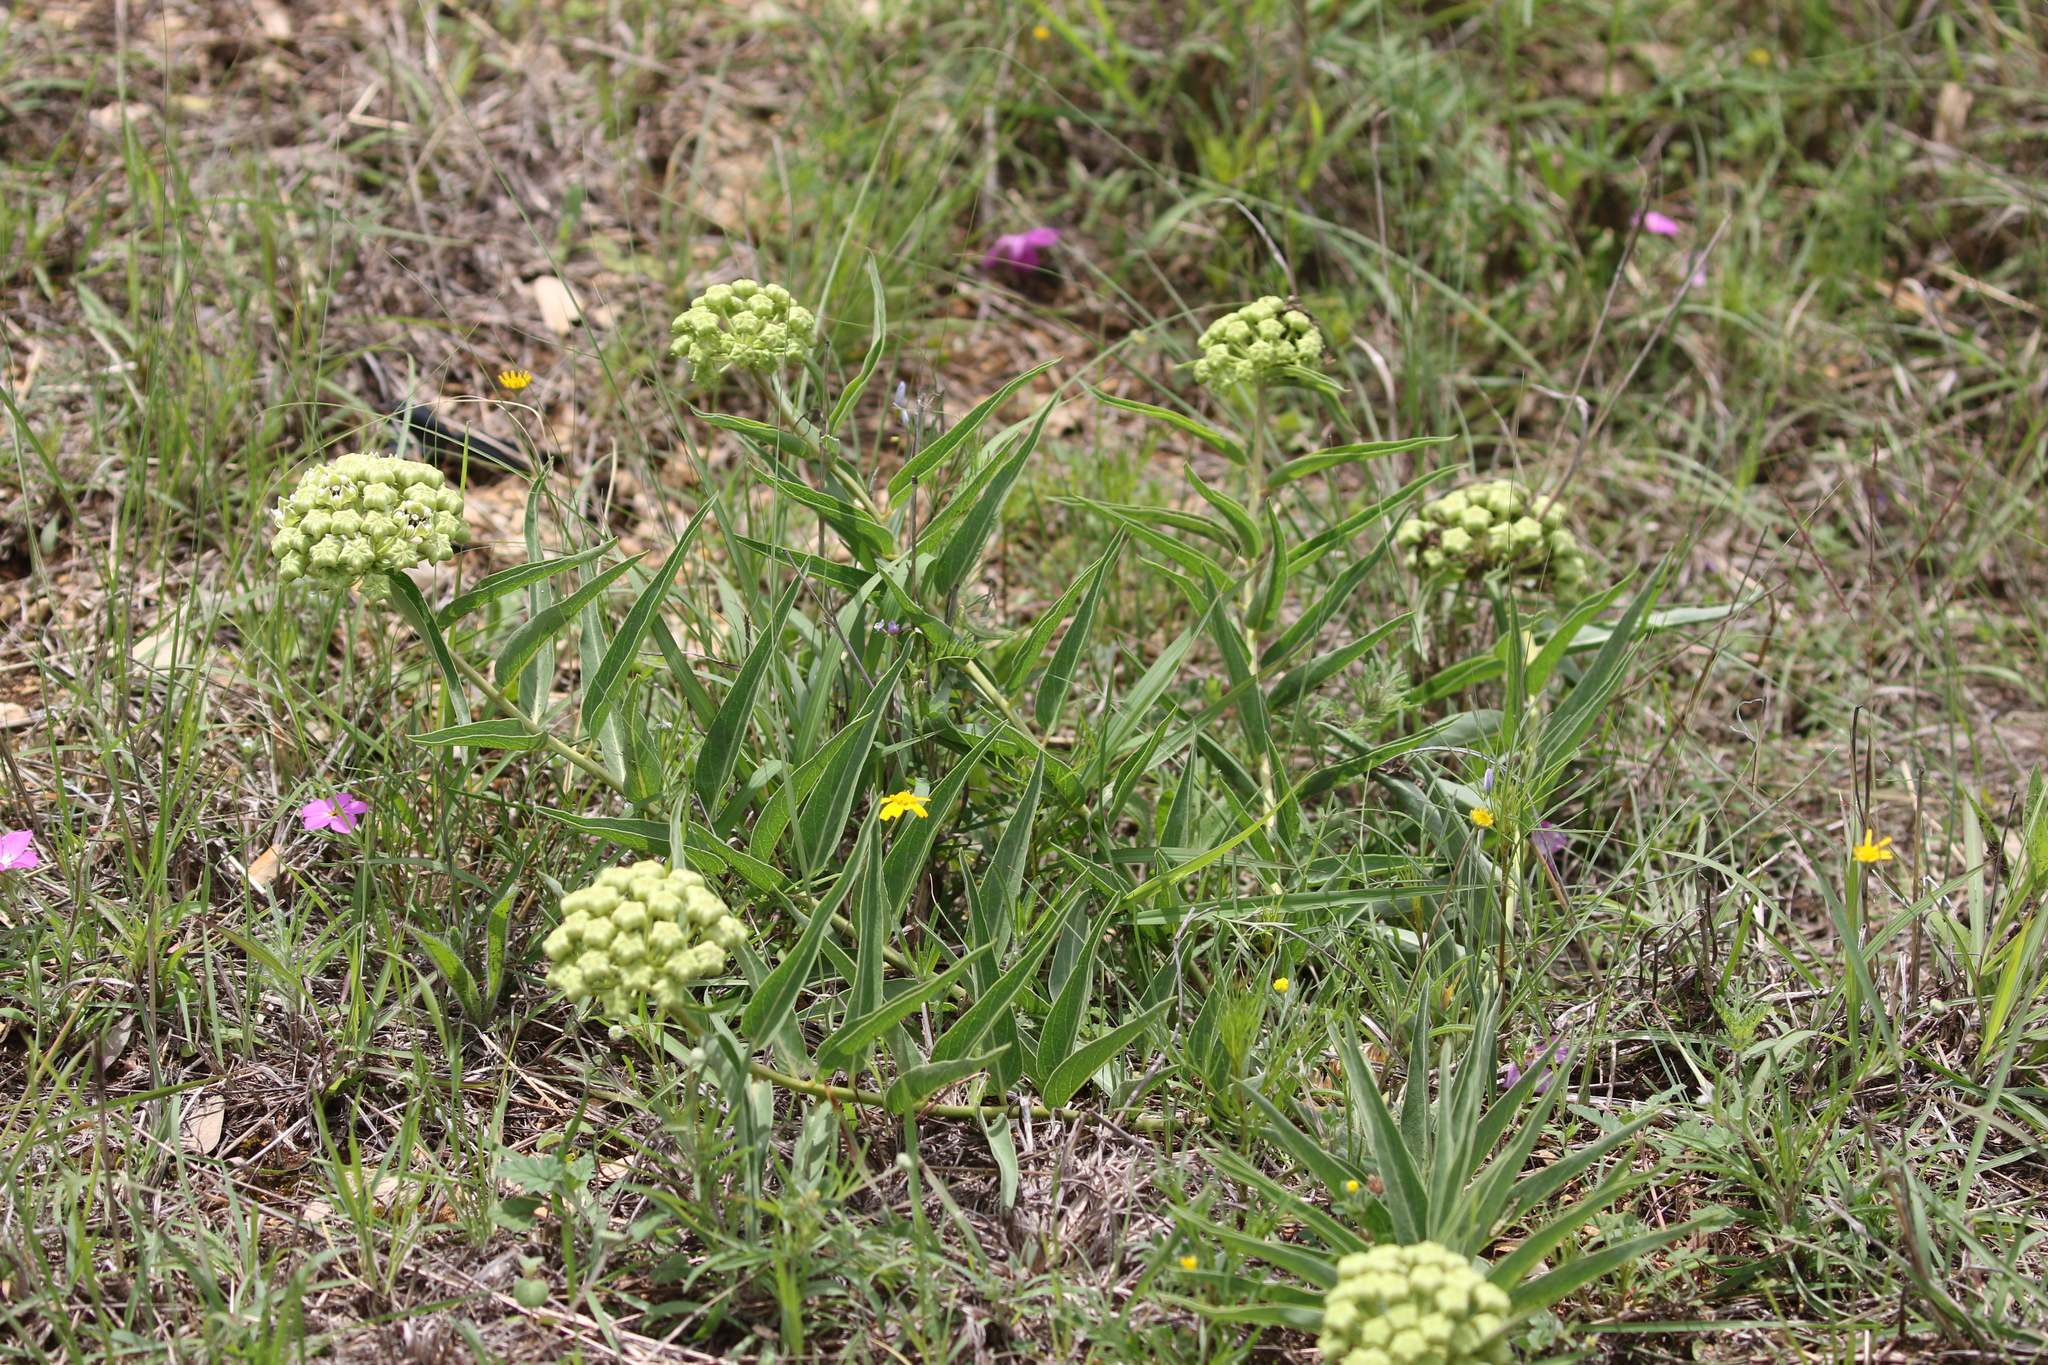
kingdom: Plantae
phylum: Tracheophyta
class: Magnoliopsida
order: Gentianales
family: Apocynaceae
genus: Asclepias
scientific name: Asclepias asperula
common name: Antelope horns
